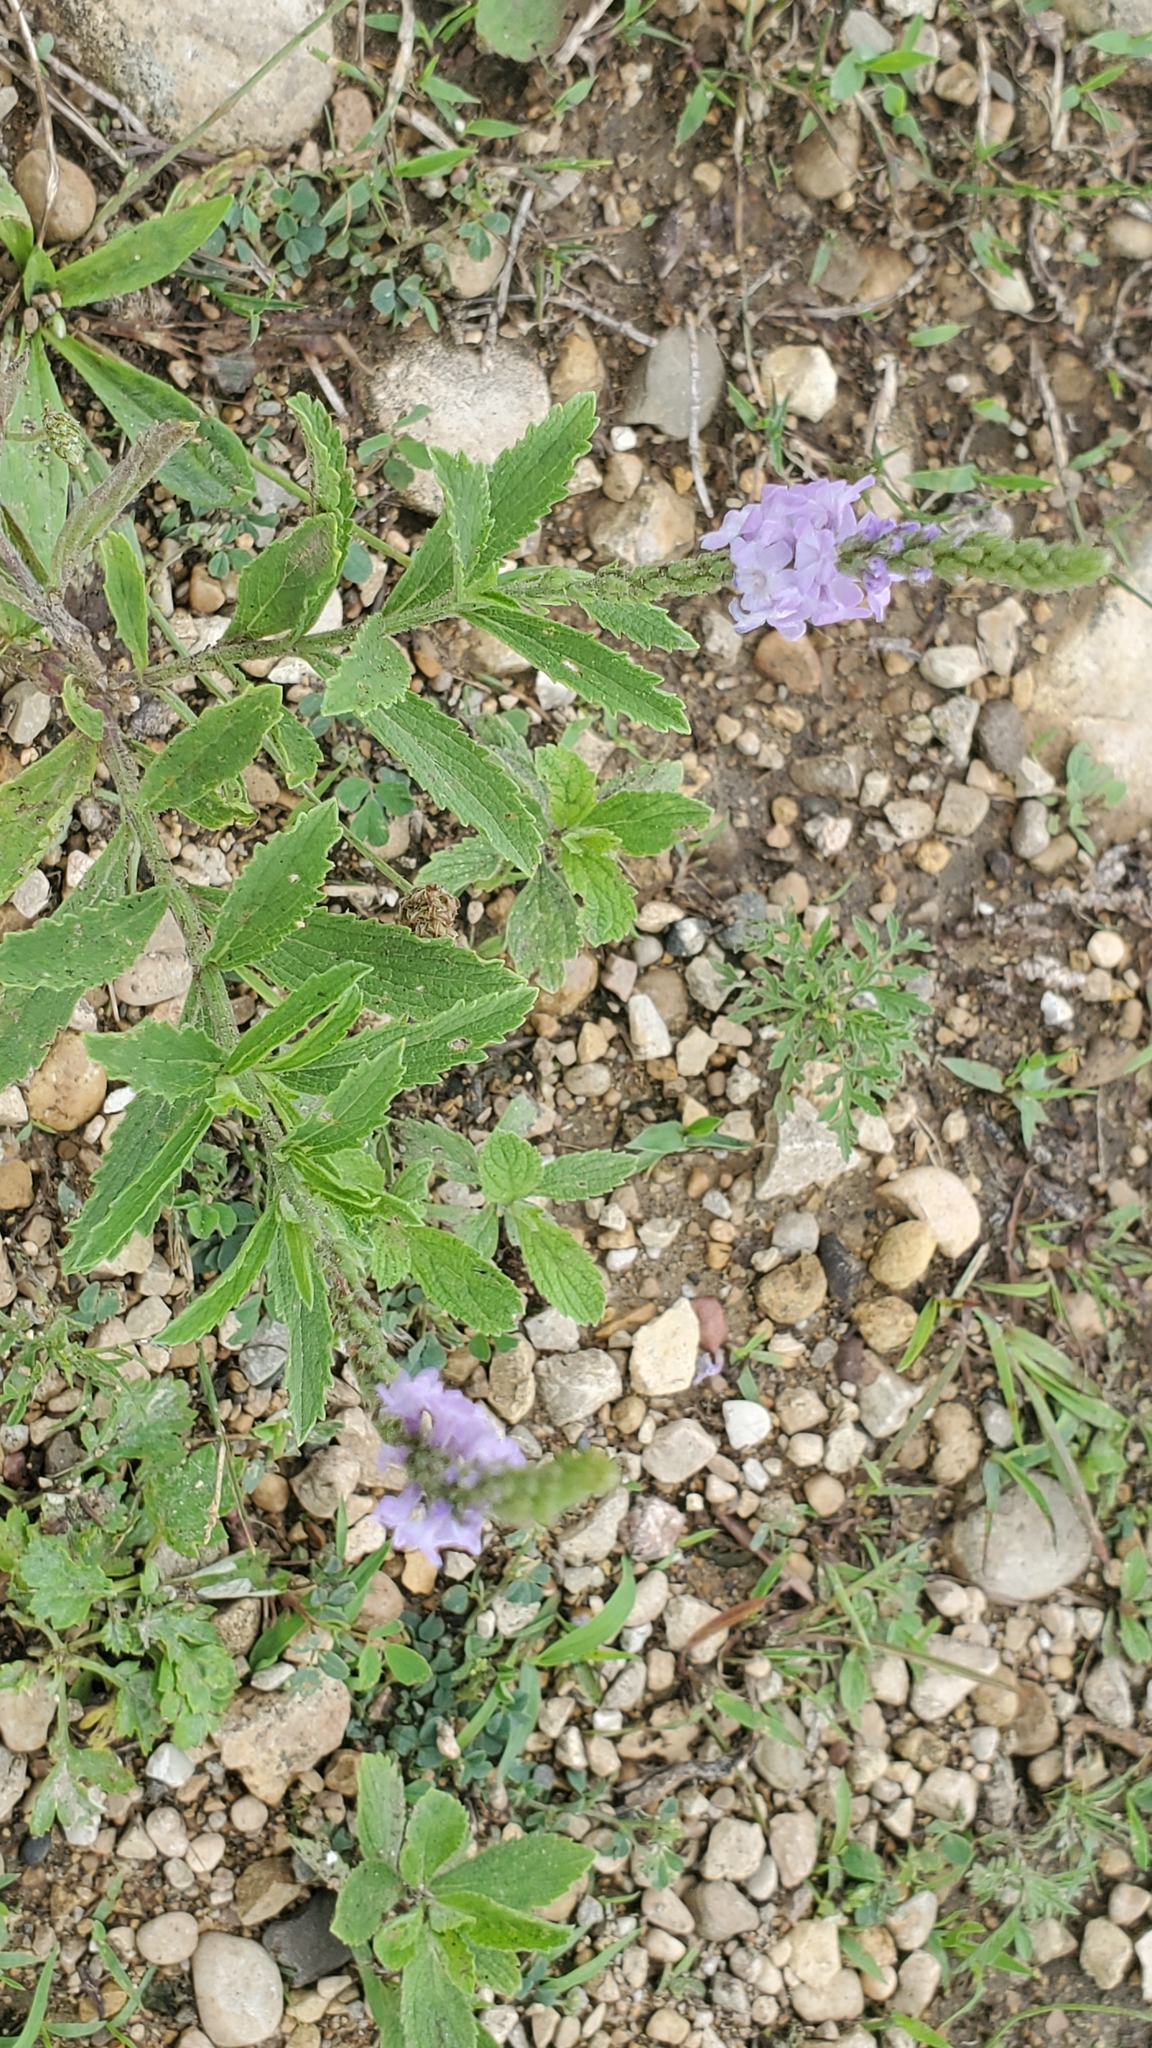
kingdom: Plantae
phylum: Tracheophyta
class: Magnoliopsida
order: Lamiales
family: Verbenaceae
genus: Verbena
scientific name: Verbena stricta
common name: Hoary vervain
